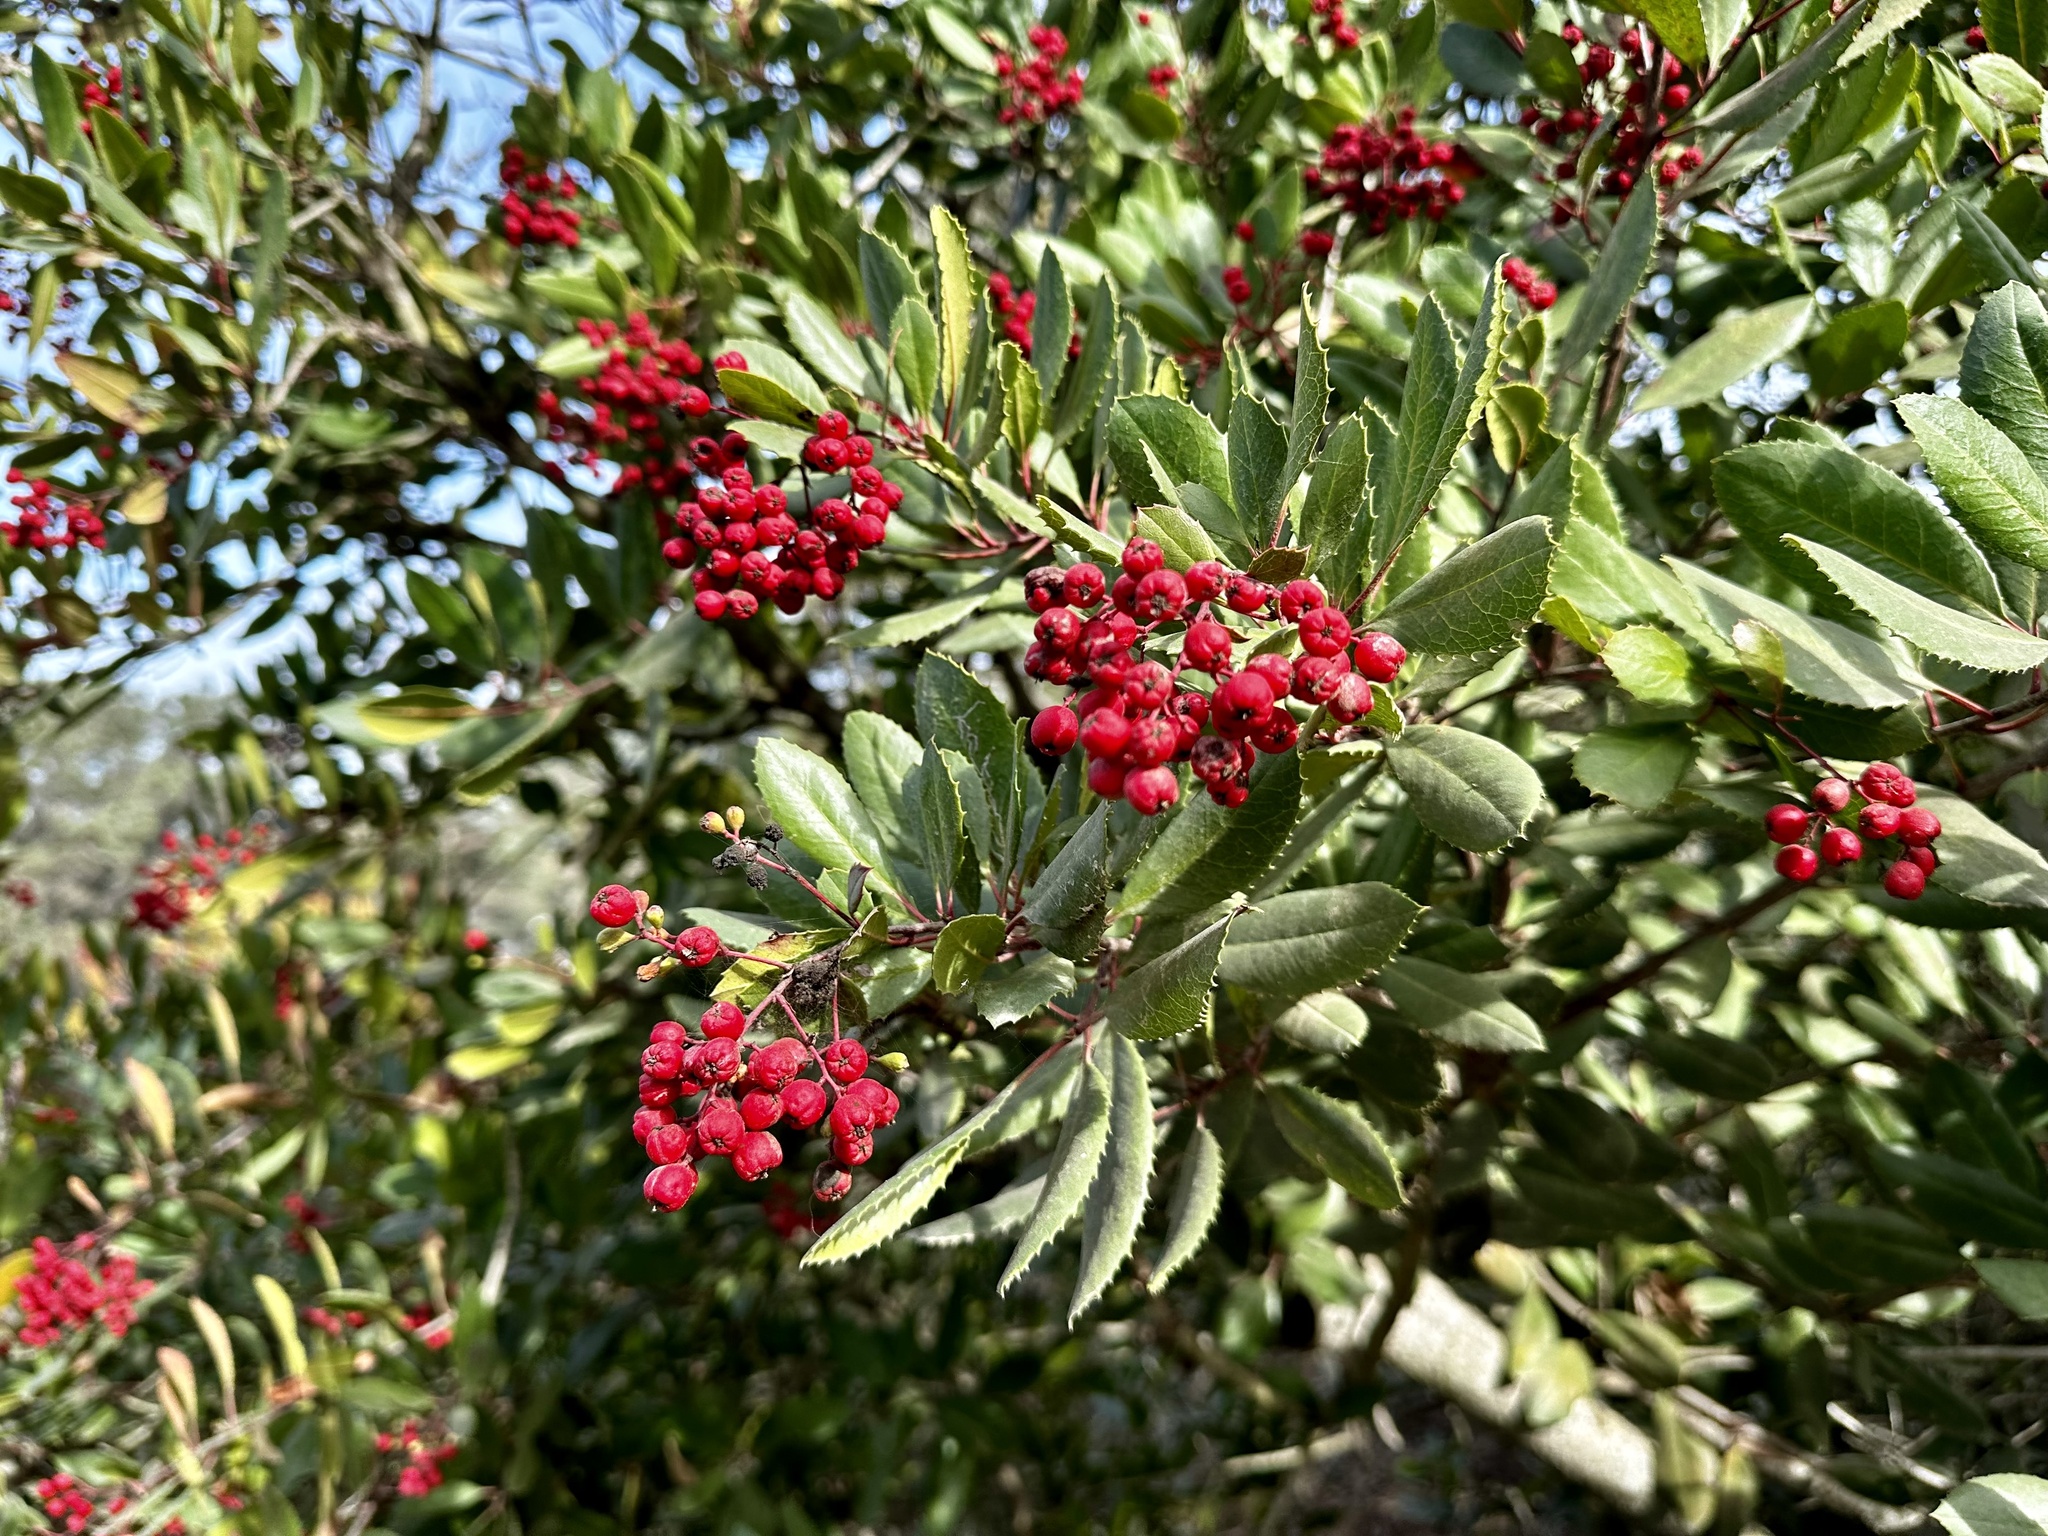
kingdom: Plantae
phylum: Tracheophyta
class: Magnoliopsida
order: Rosales
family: Rosaceae
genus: Heteromeles
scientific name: Heteromeles arbutifolia
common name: California-holly
